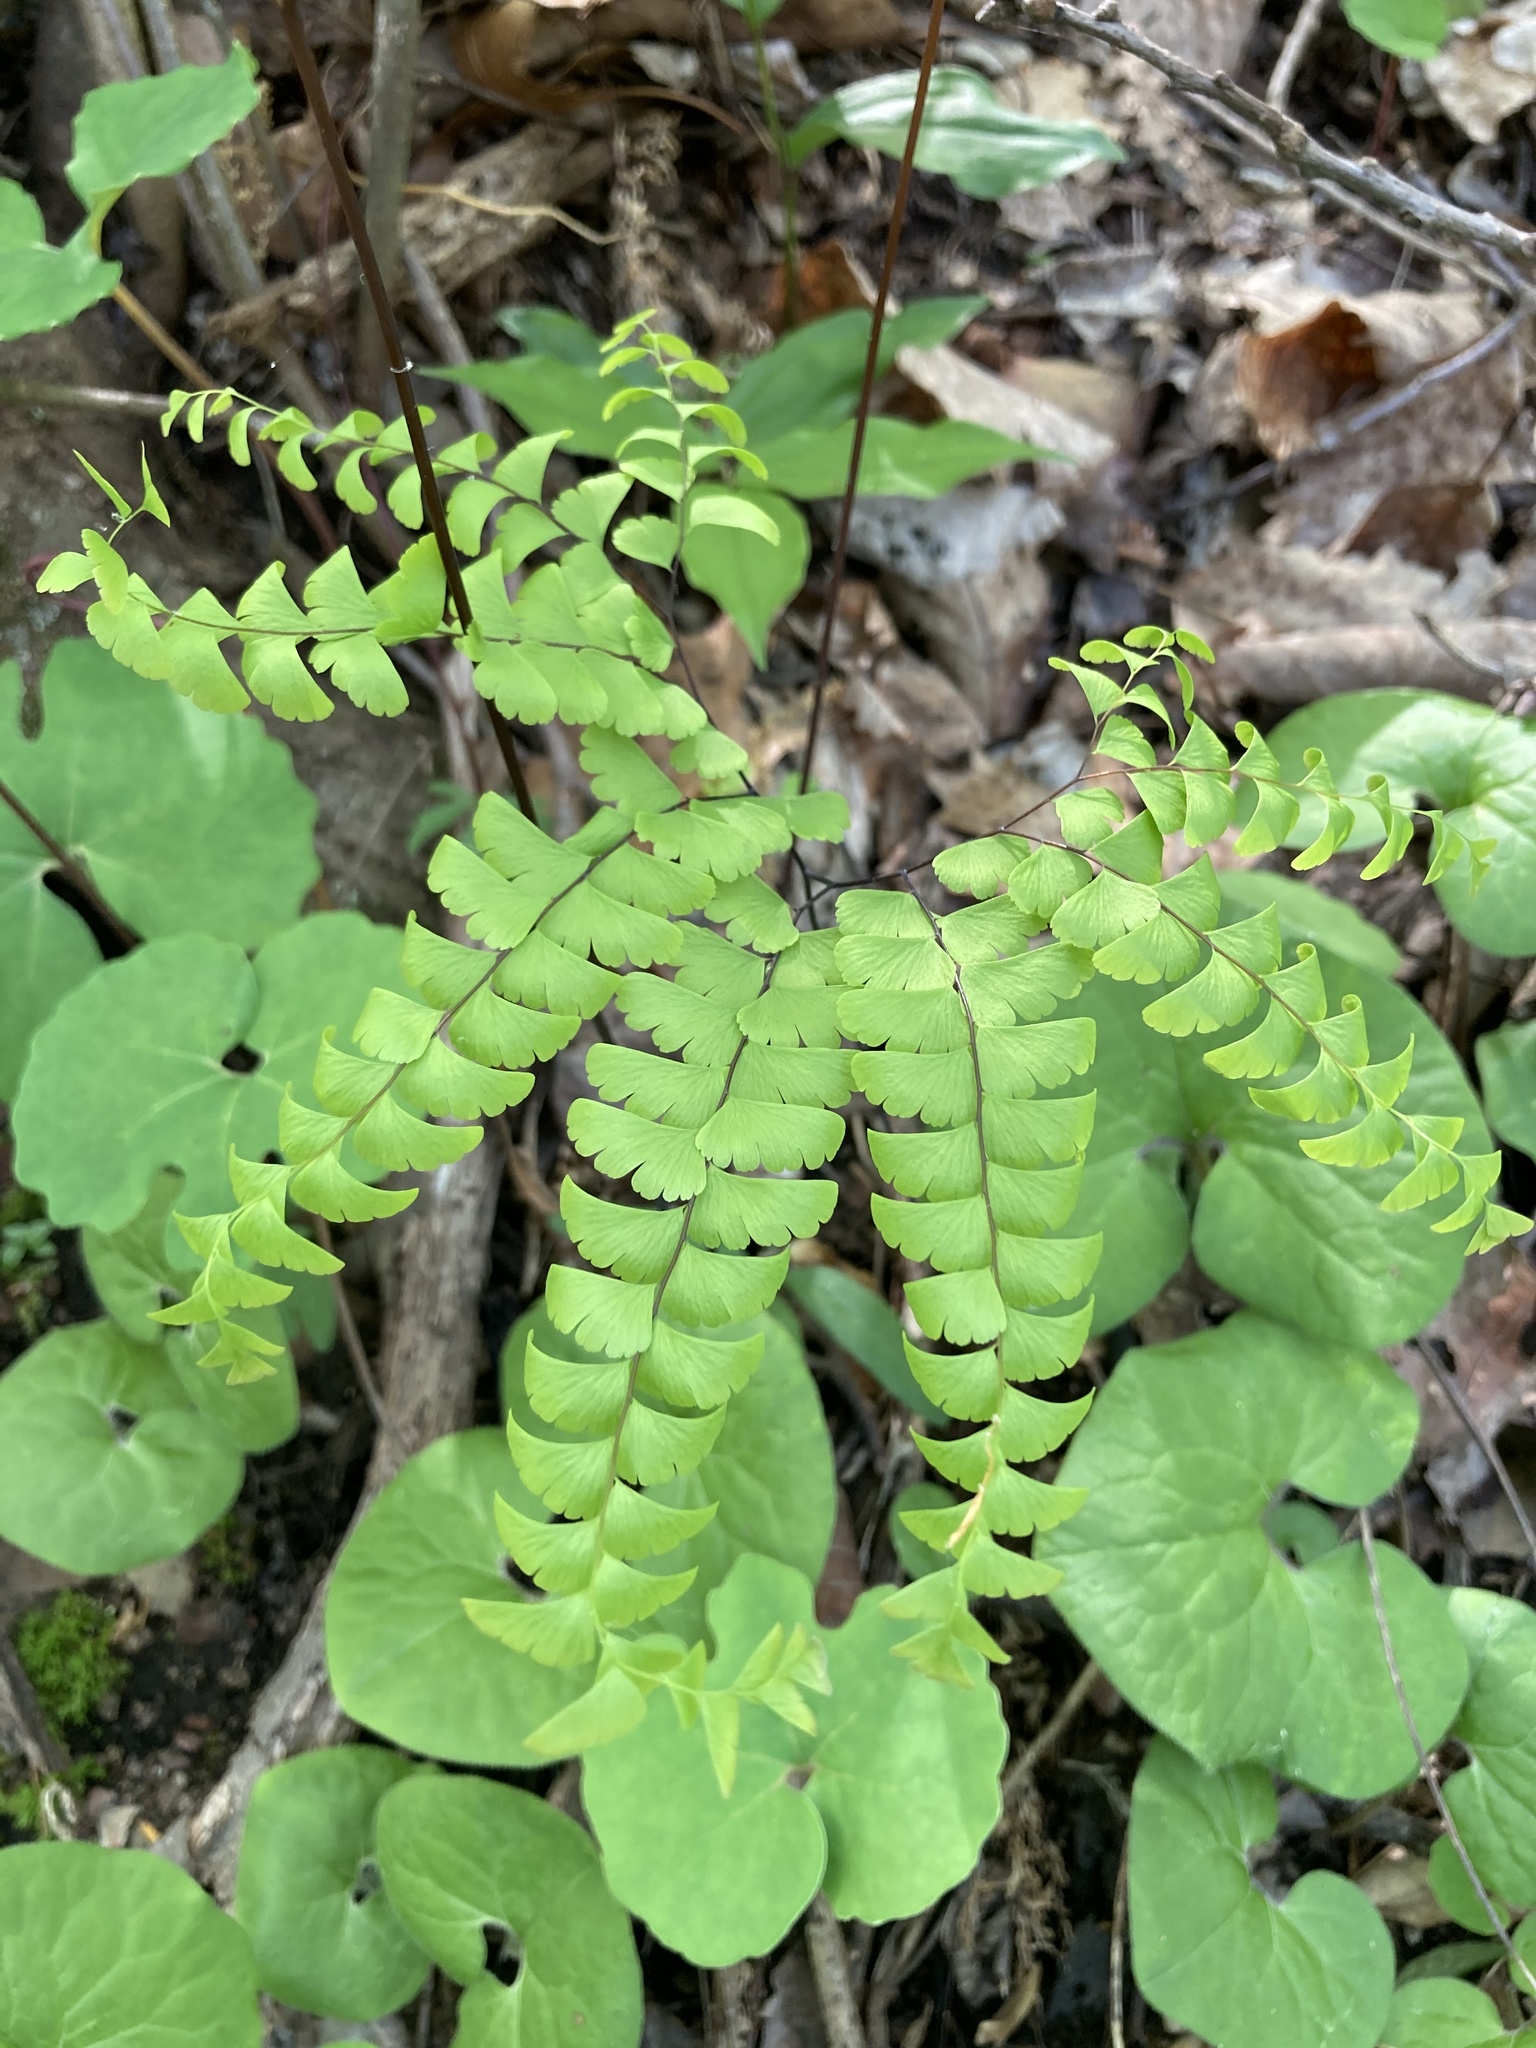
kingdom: Plantae
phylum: Tracheophyta
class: Polypodiopsida
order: Polypodiales
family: Pteridaceae
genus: Adiantum
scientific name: Adiantum pedatum
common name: Five-finger fern
